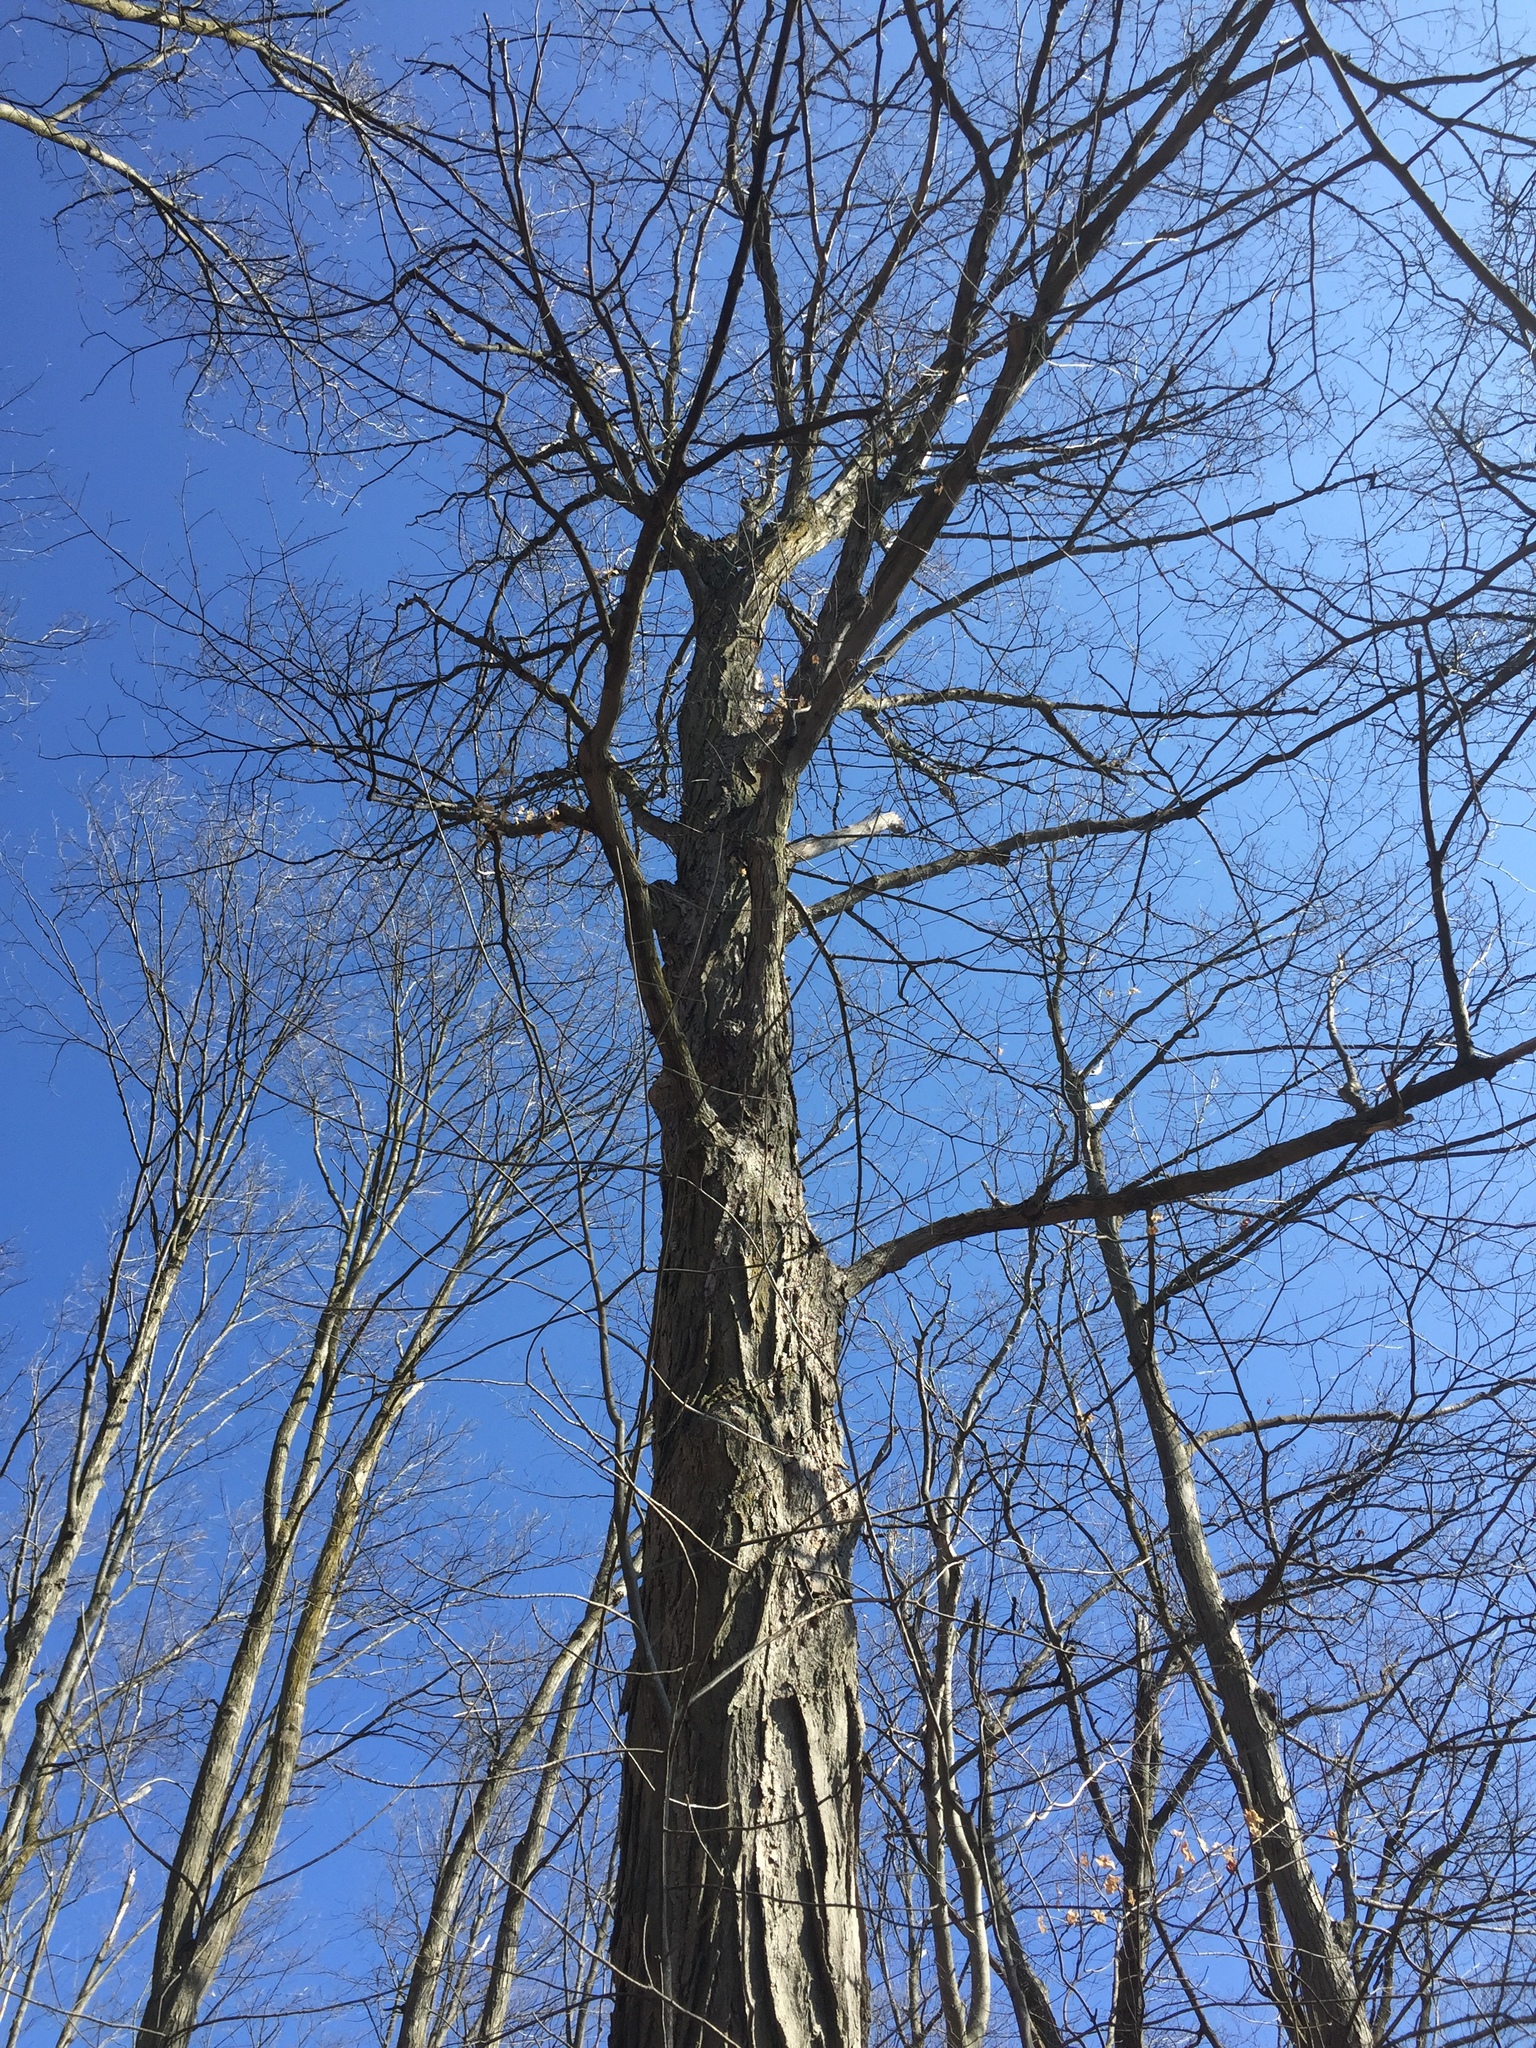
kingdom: Plantae
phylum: Tracheophyta
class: Magnoliopsida
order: Sapindales
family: Sapindaceae
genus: Acer
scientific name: Acer saccharum
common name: Sugar maple
